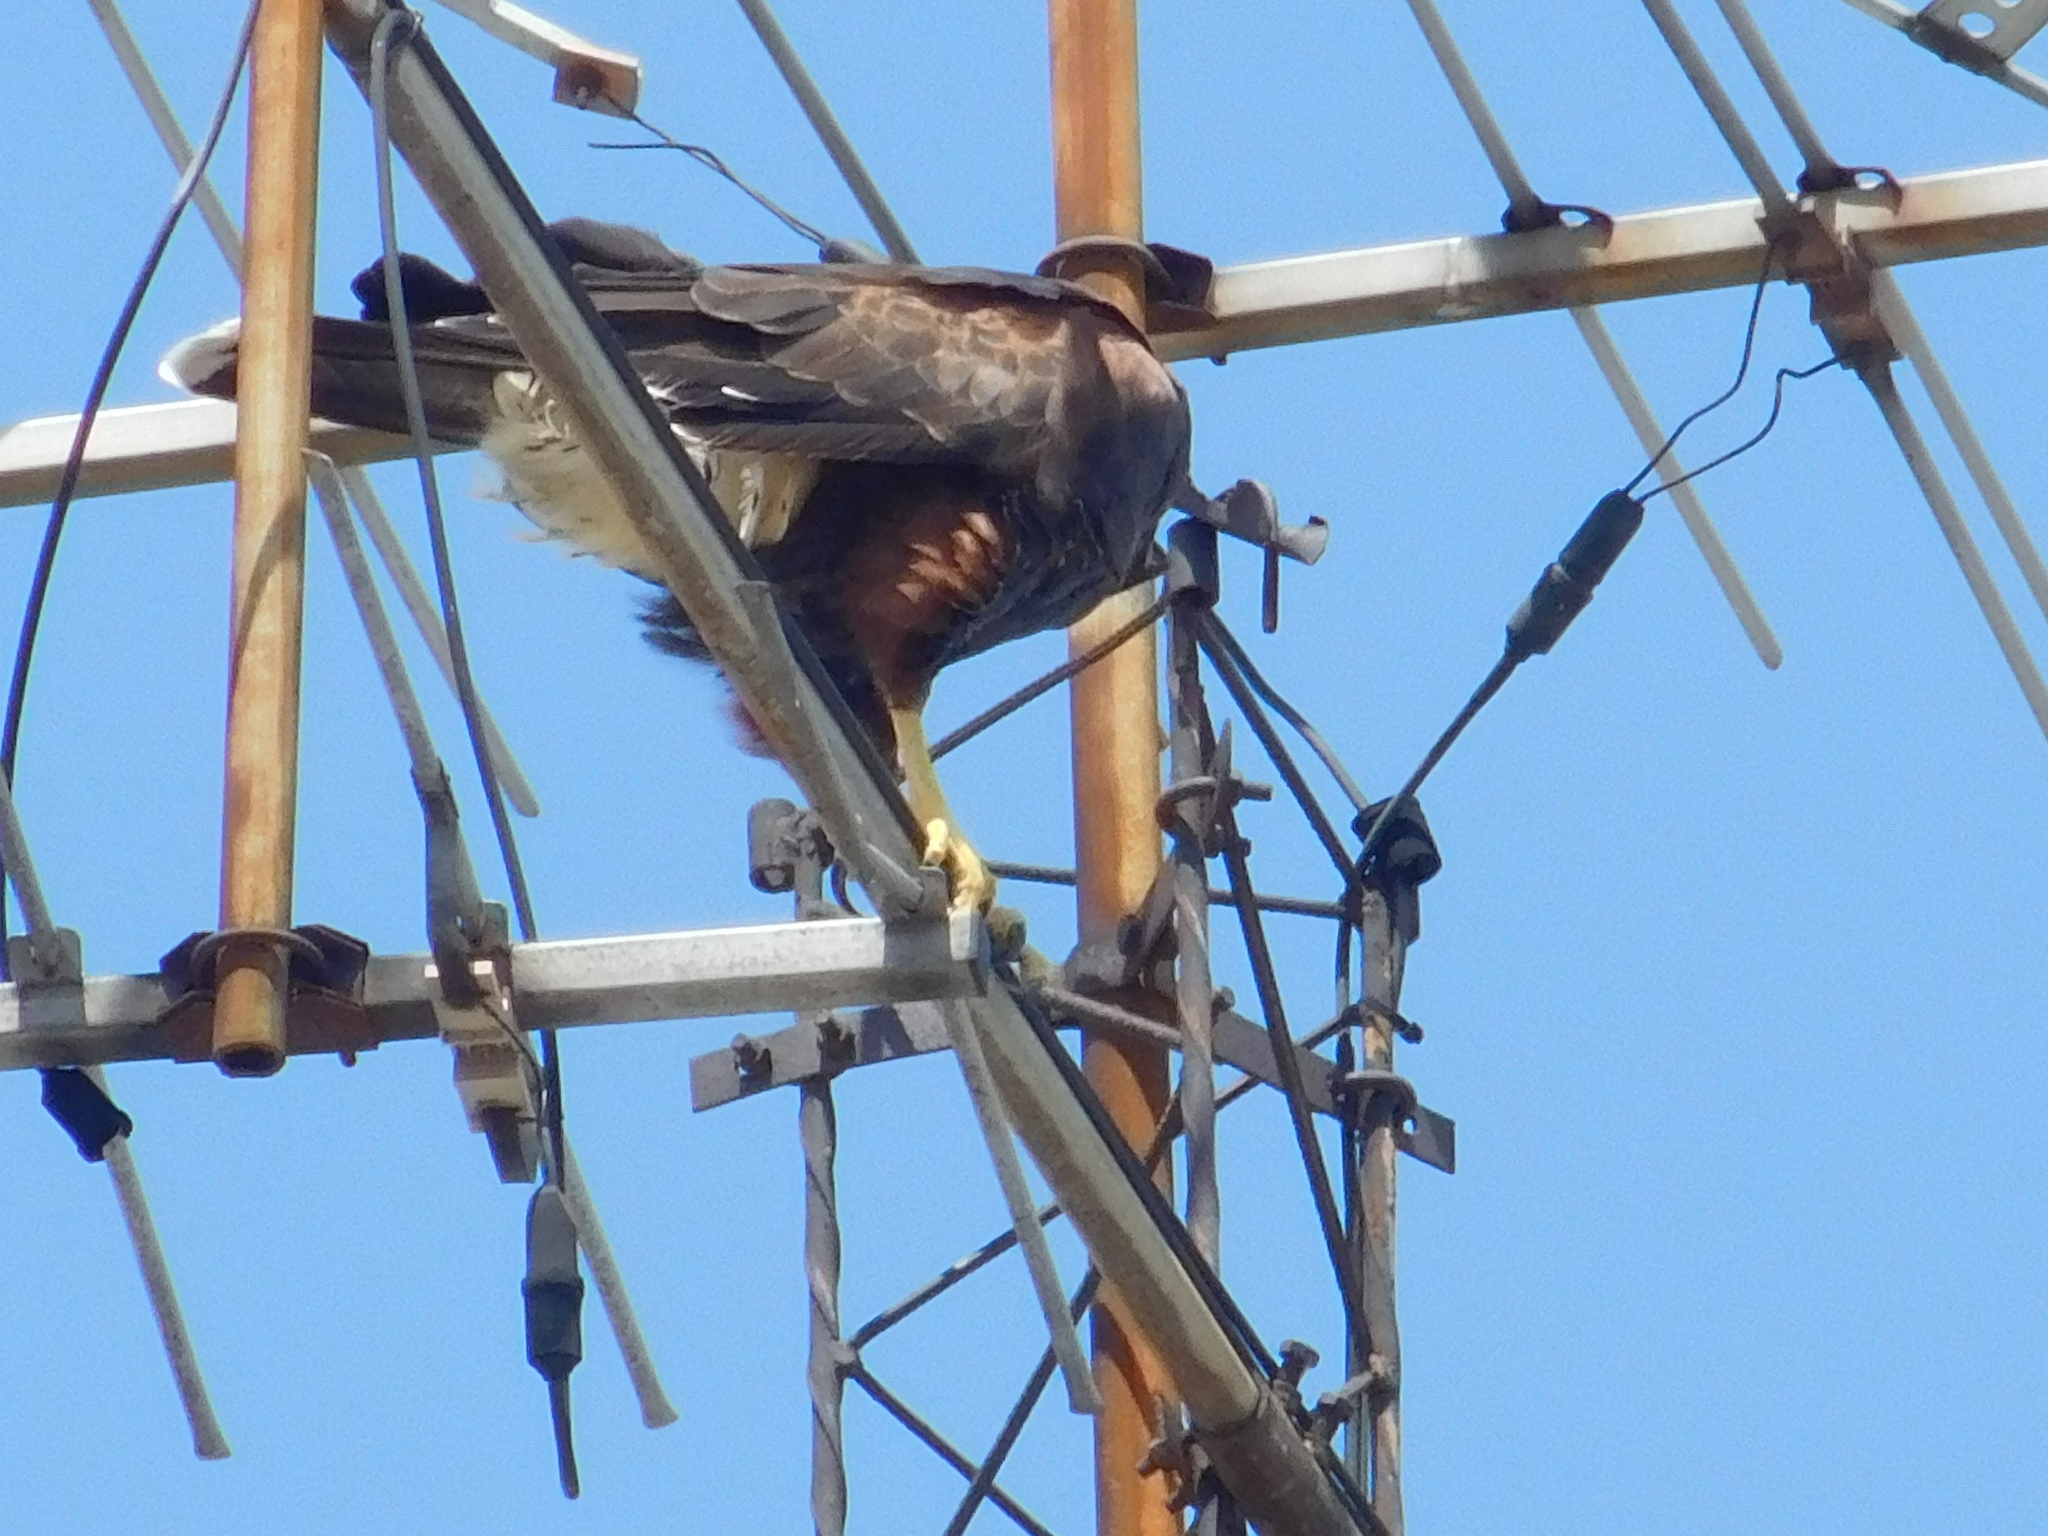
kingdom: Animalia
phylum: Chordata
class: Aves
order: Accipitriformes
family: Accipitridae
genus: Parabuteo
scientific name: Parabuteo unicinctus
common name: Harris's hawk
